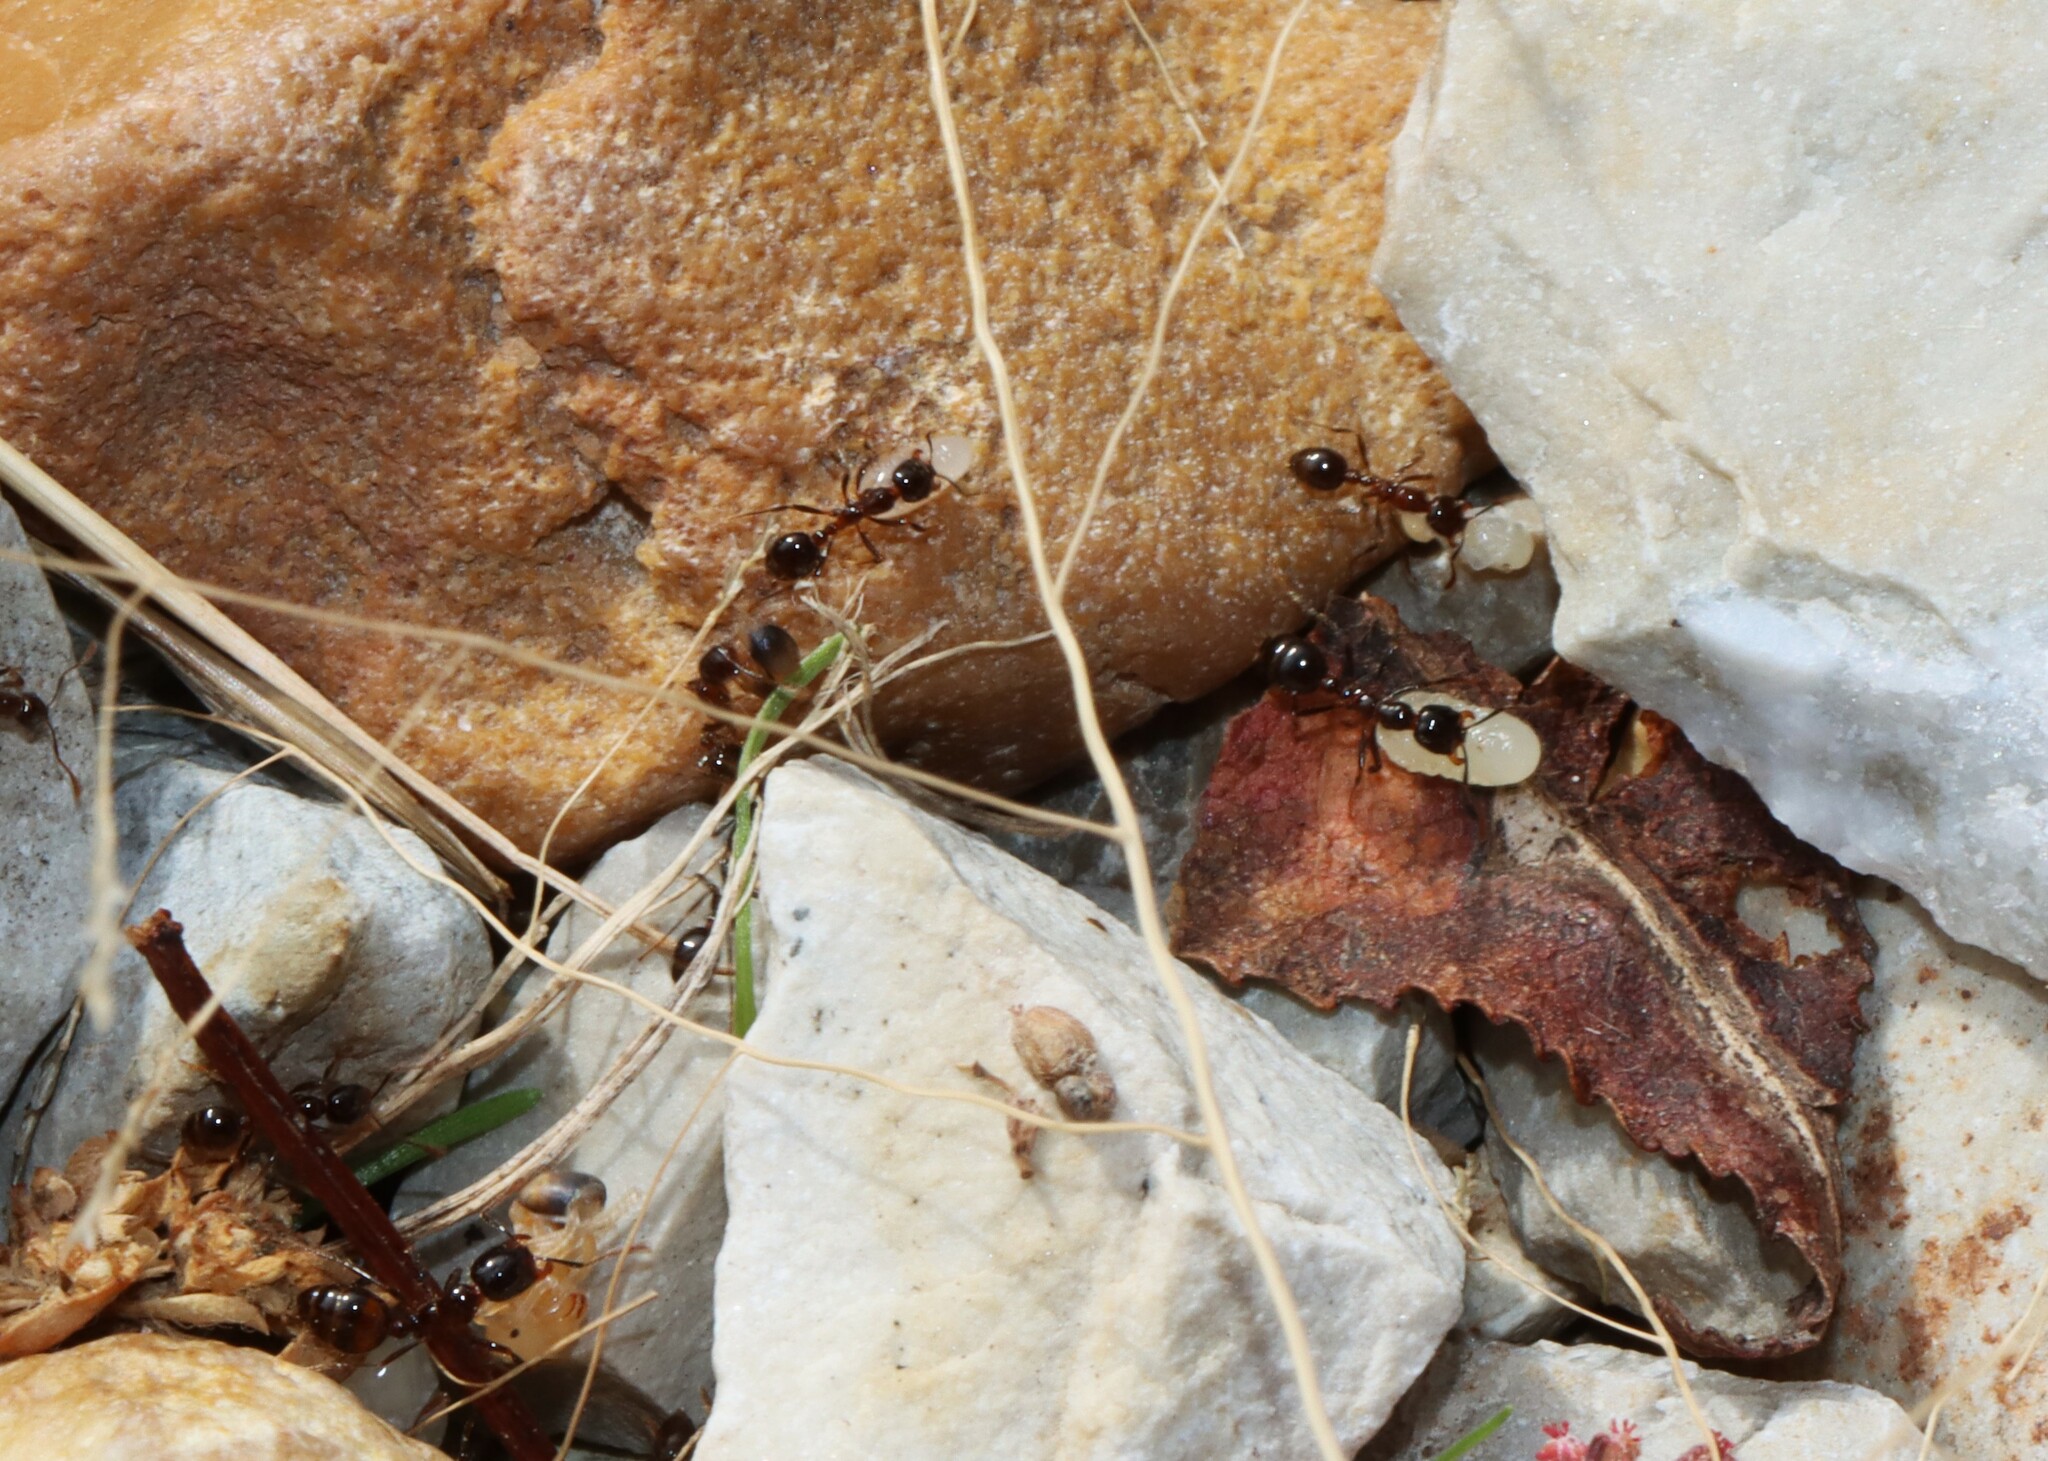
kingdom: Animalia
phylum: Arthropoda
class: Insecta
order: Hymenoptera
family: Formicidae
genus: Solenopsis
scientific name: Solenopsis
